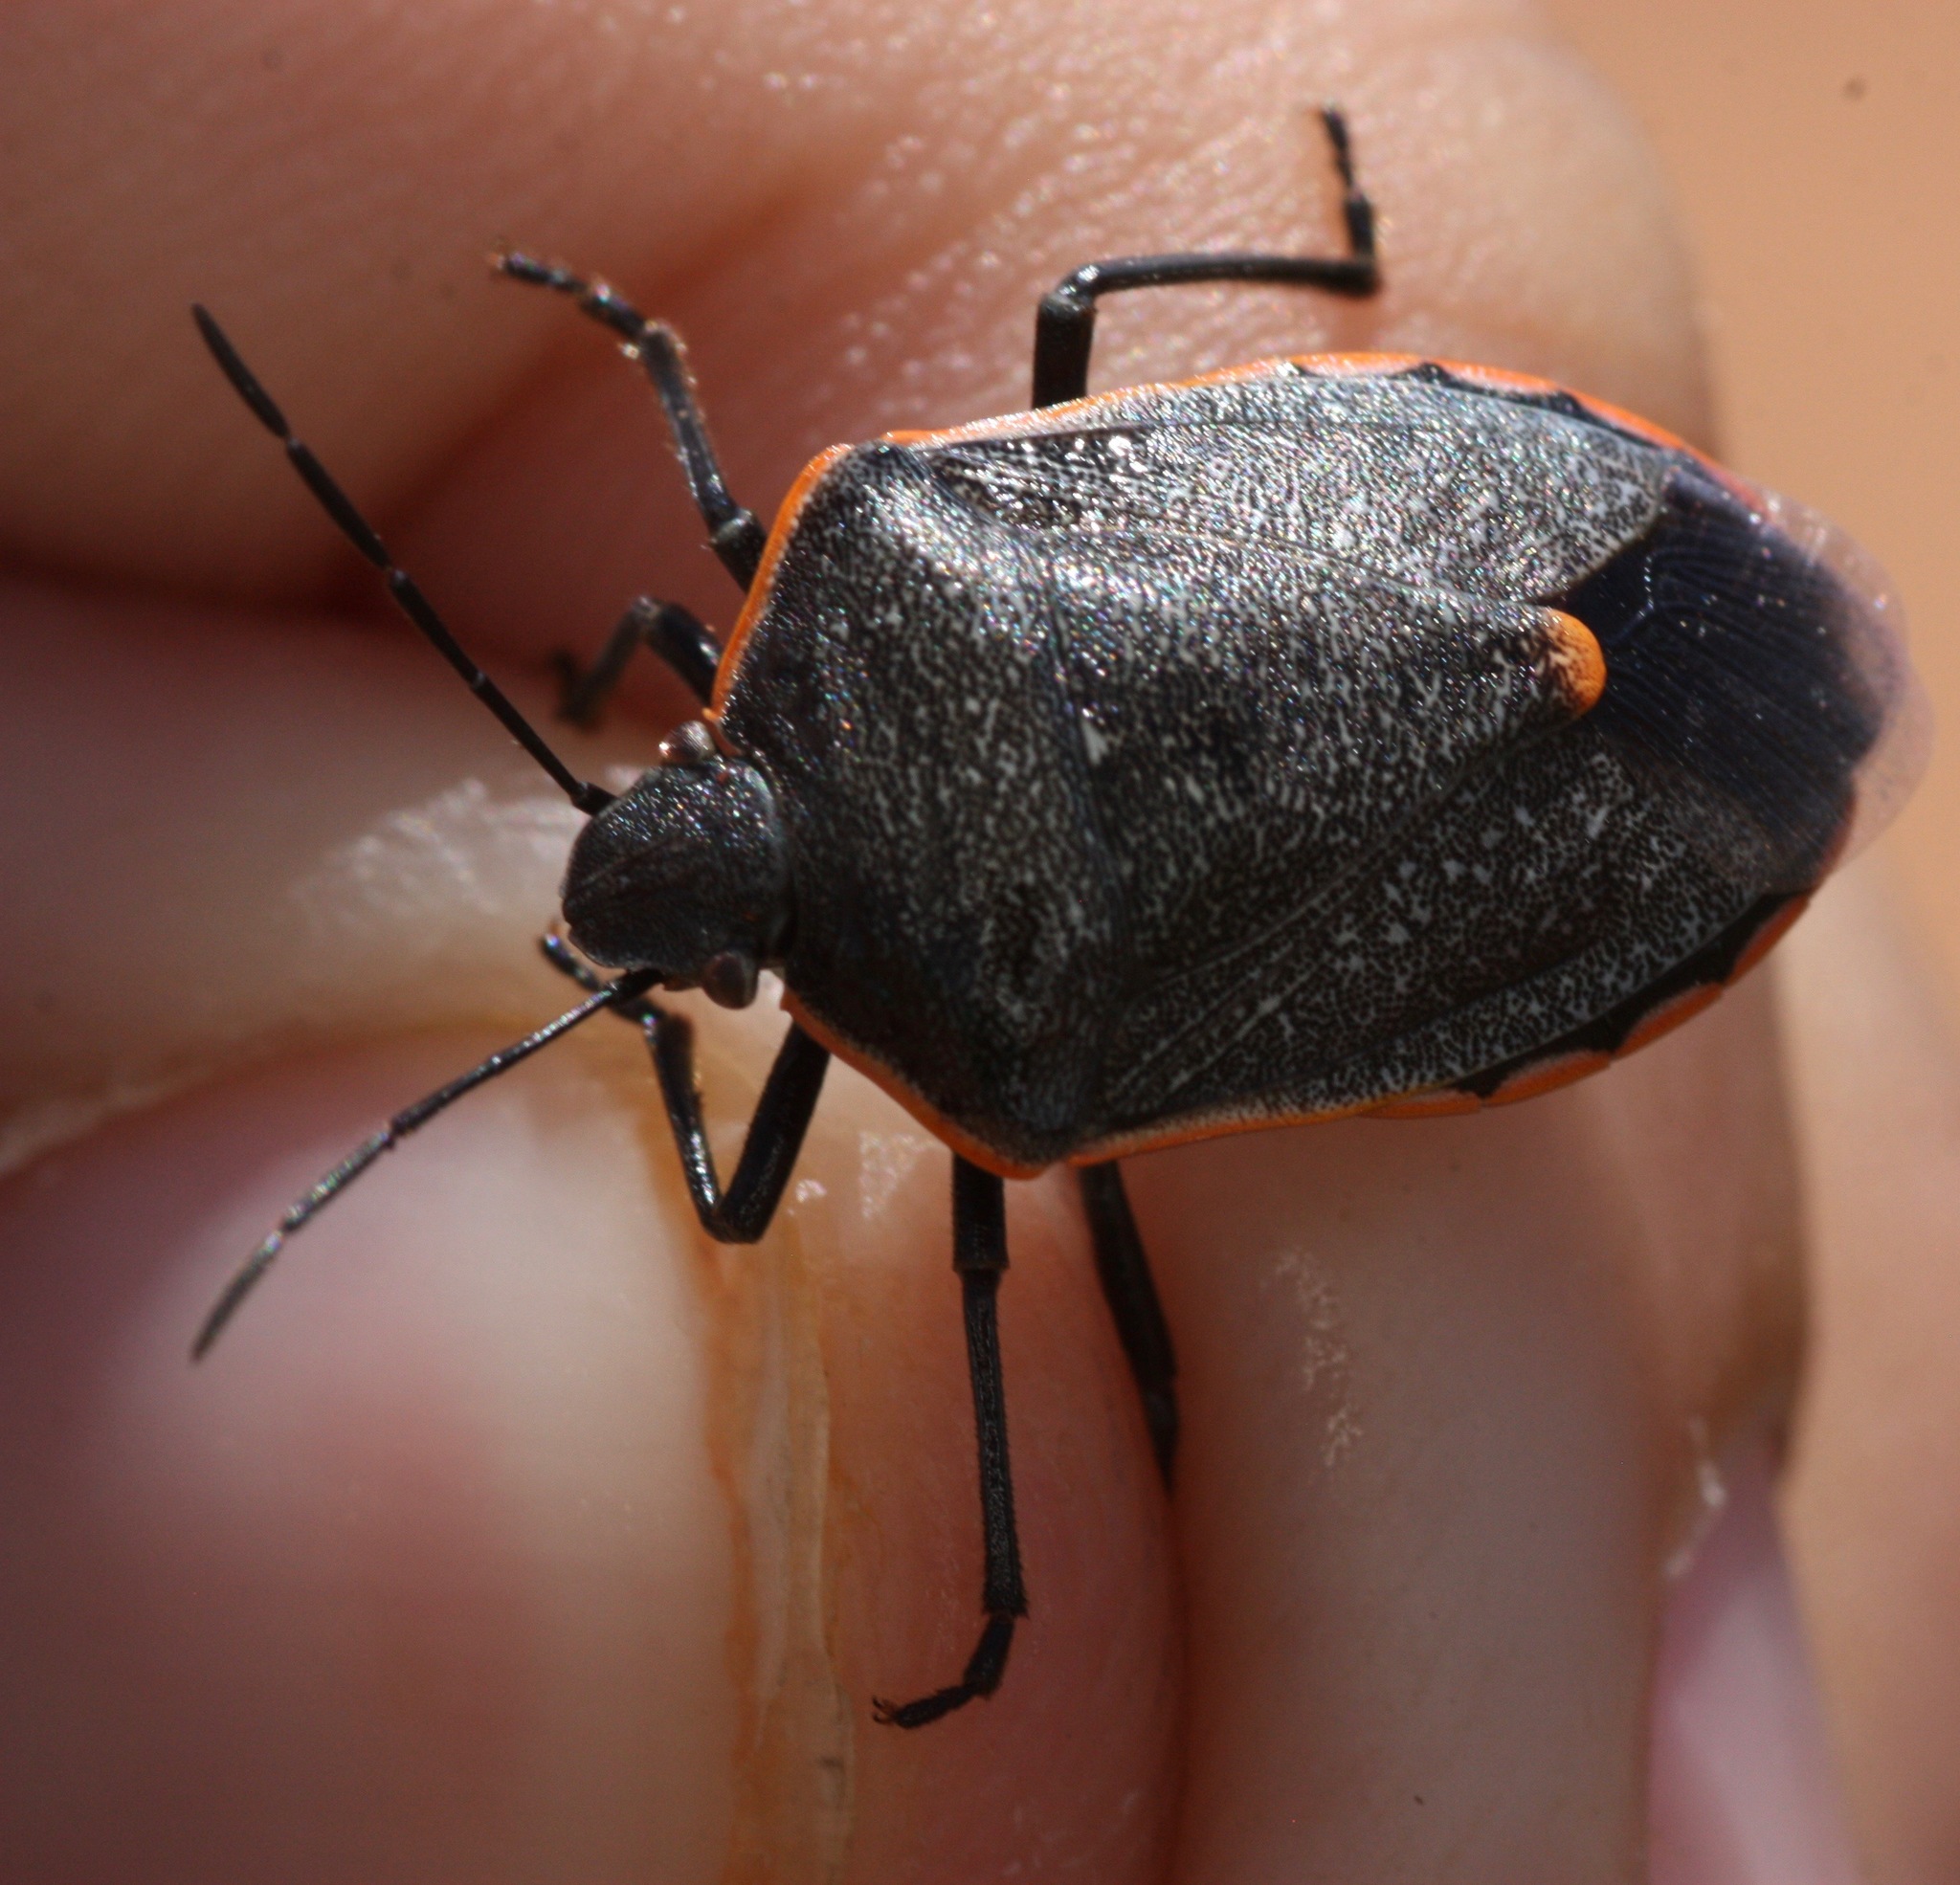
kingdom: Animalia
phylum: Arthropoda
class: Insecta
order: Hemiptera
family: Pentatomidae
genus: Chlorochroa
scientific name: Chlorochroa ligata
